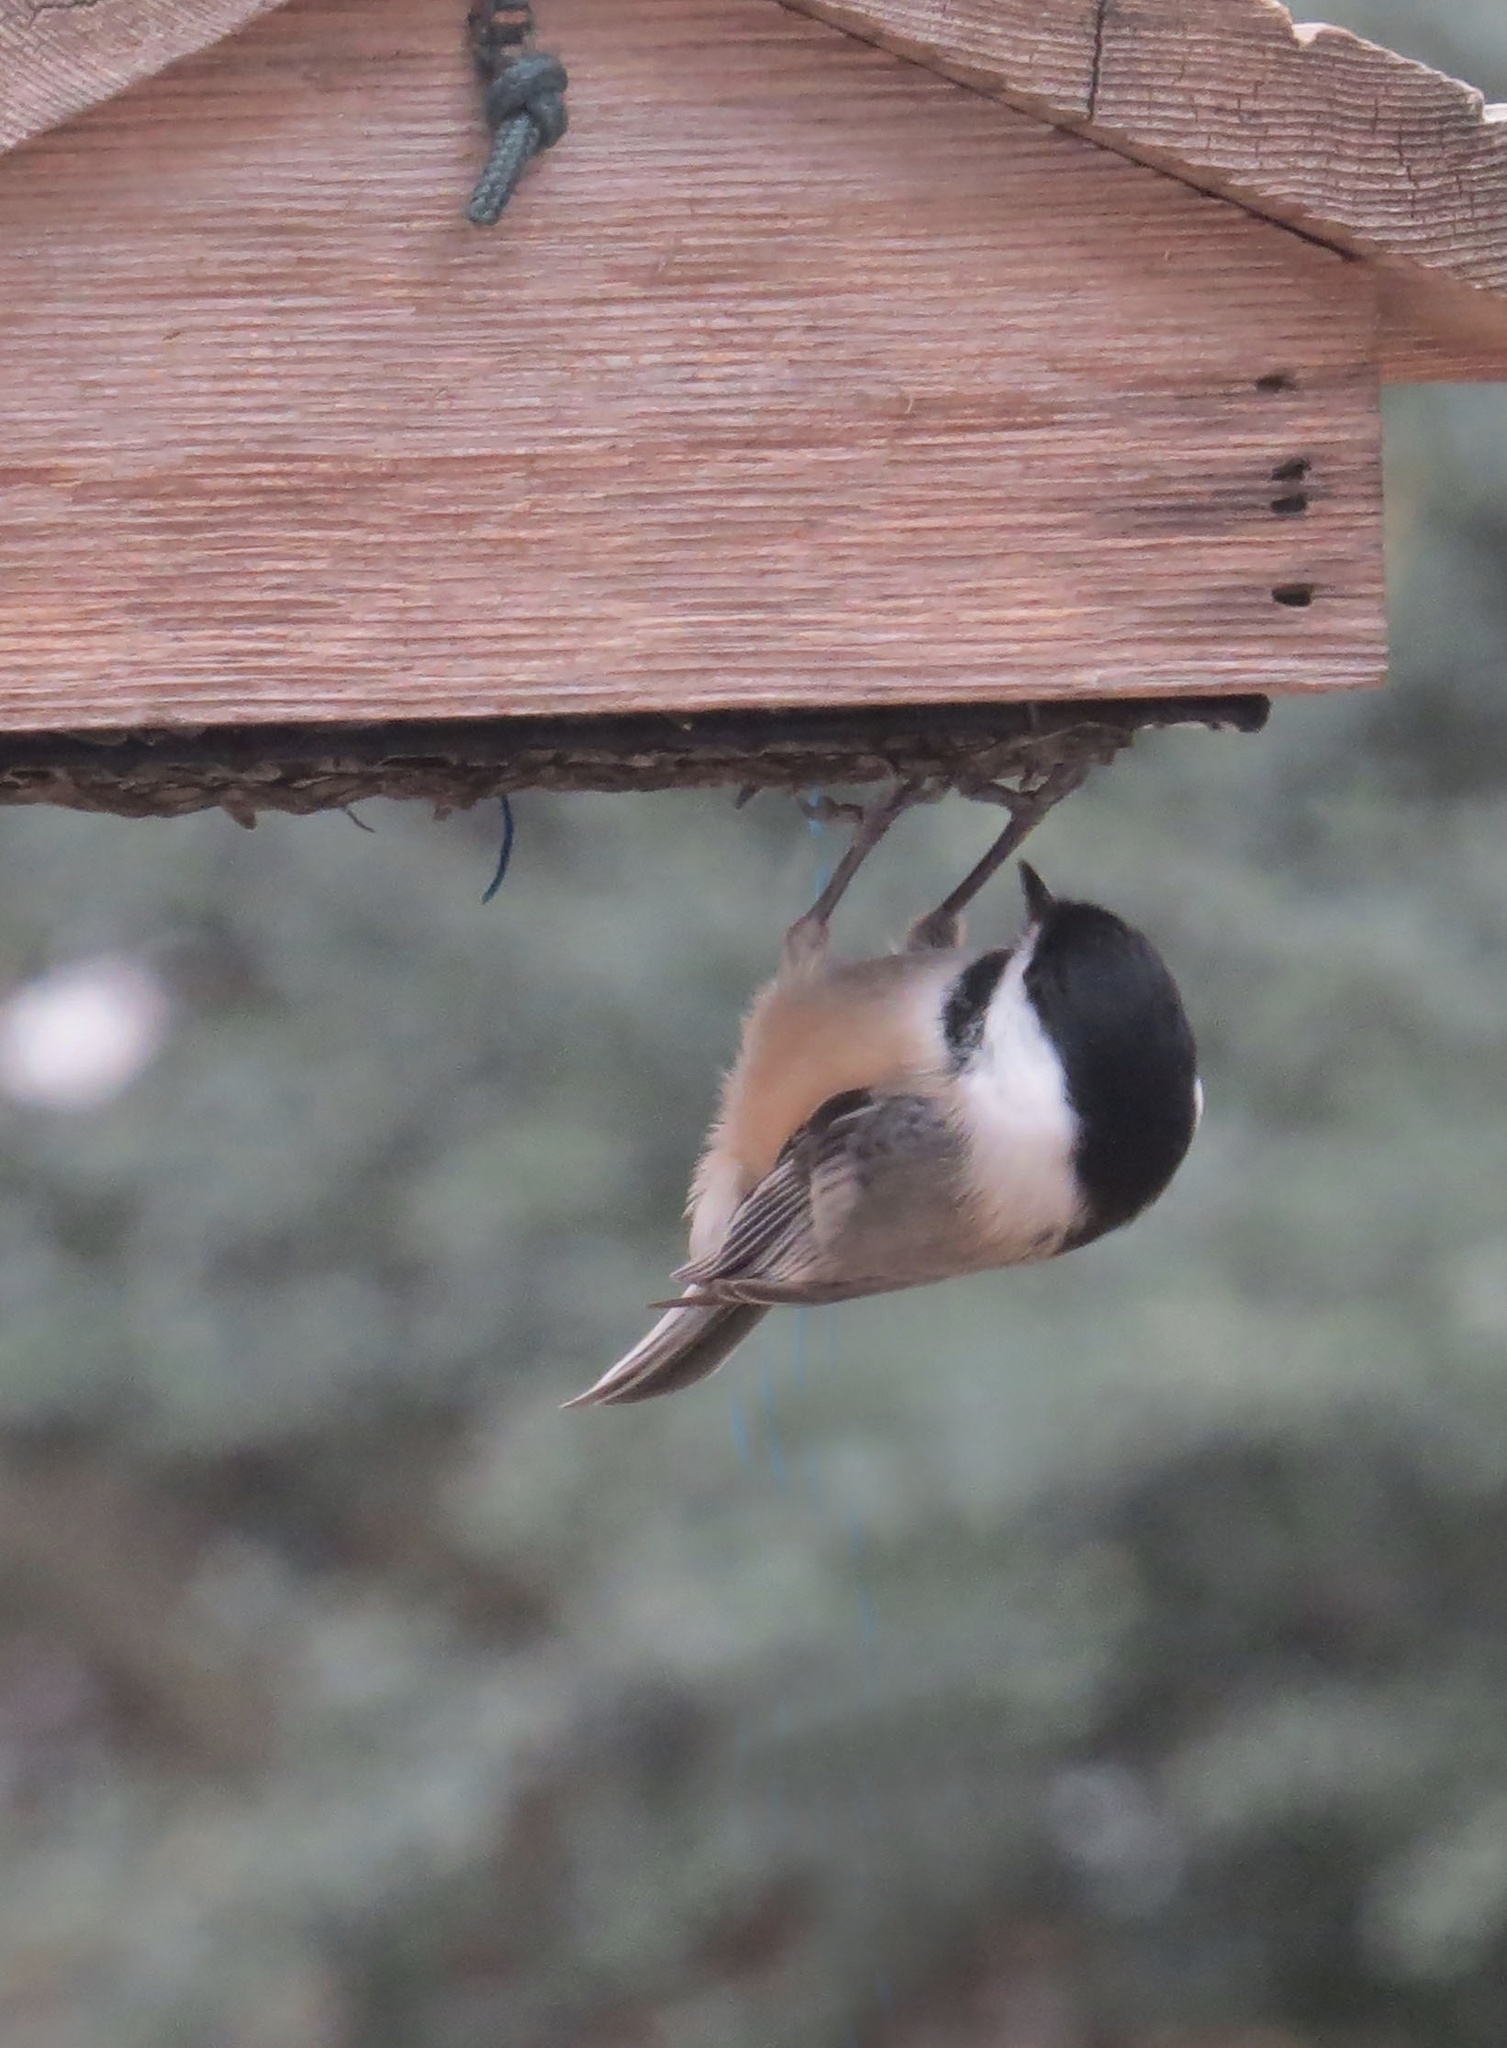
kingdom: Animalia
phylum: Chordata
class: Aves
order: Passeriformes
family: Paridae
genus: Poecile
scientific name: Poecile atricapillus
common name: Black-capped chickadee
